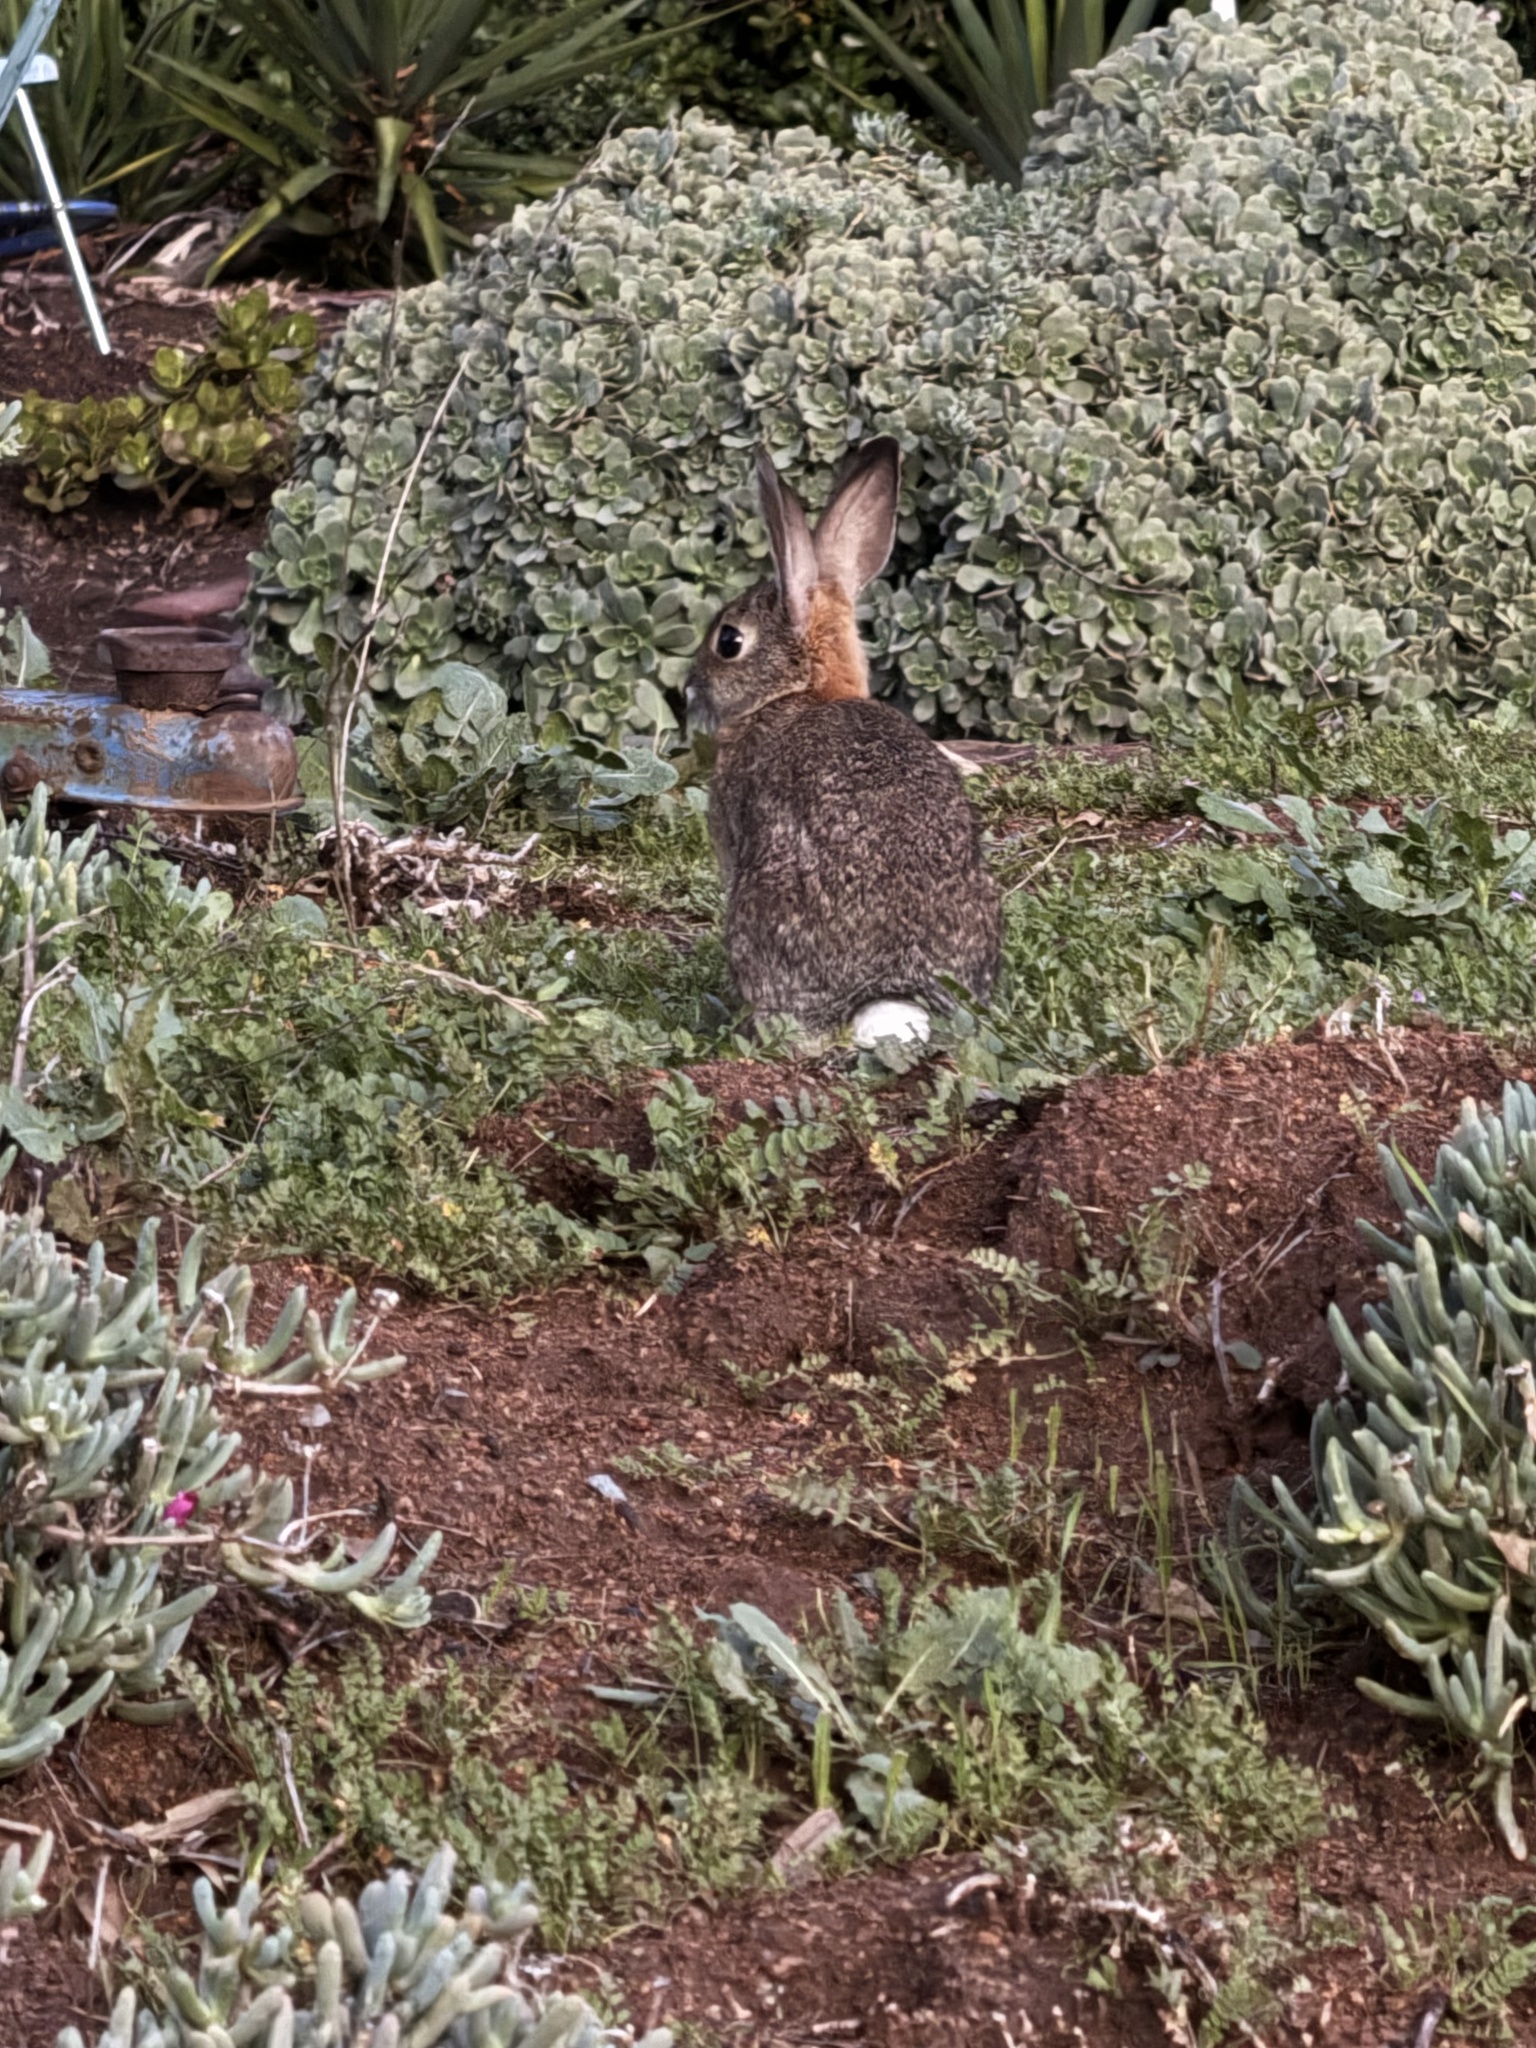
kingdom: Animalia
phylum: Chordata
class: Mammalia
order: Lagomorpha
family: Leporidae
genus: Sylvilagus
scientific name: Sylvilagus bachmani
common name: Brush rabbit
